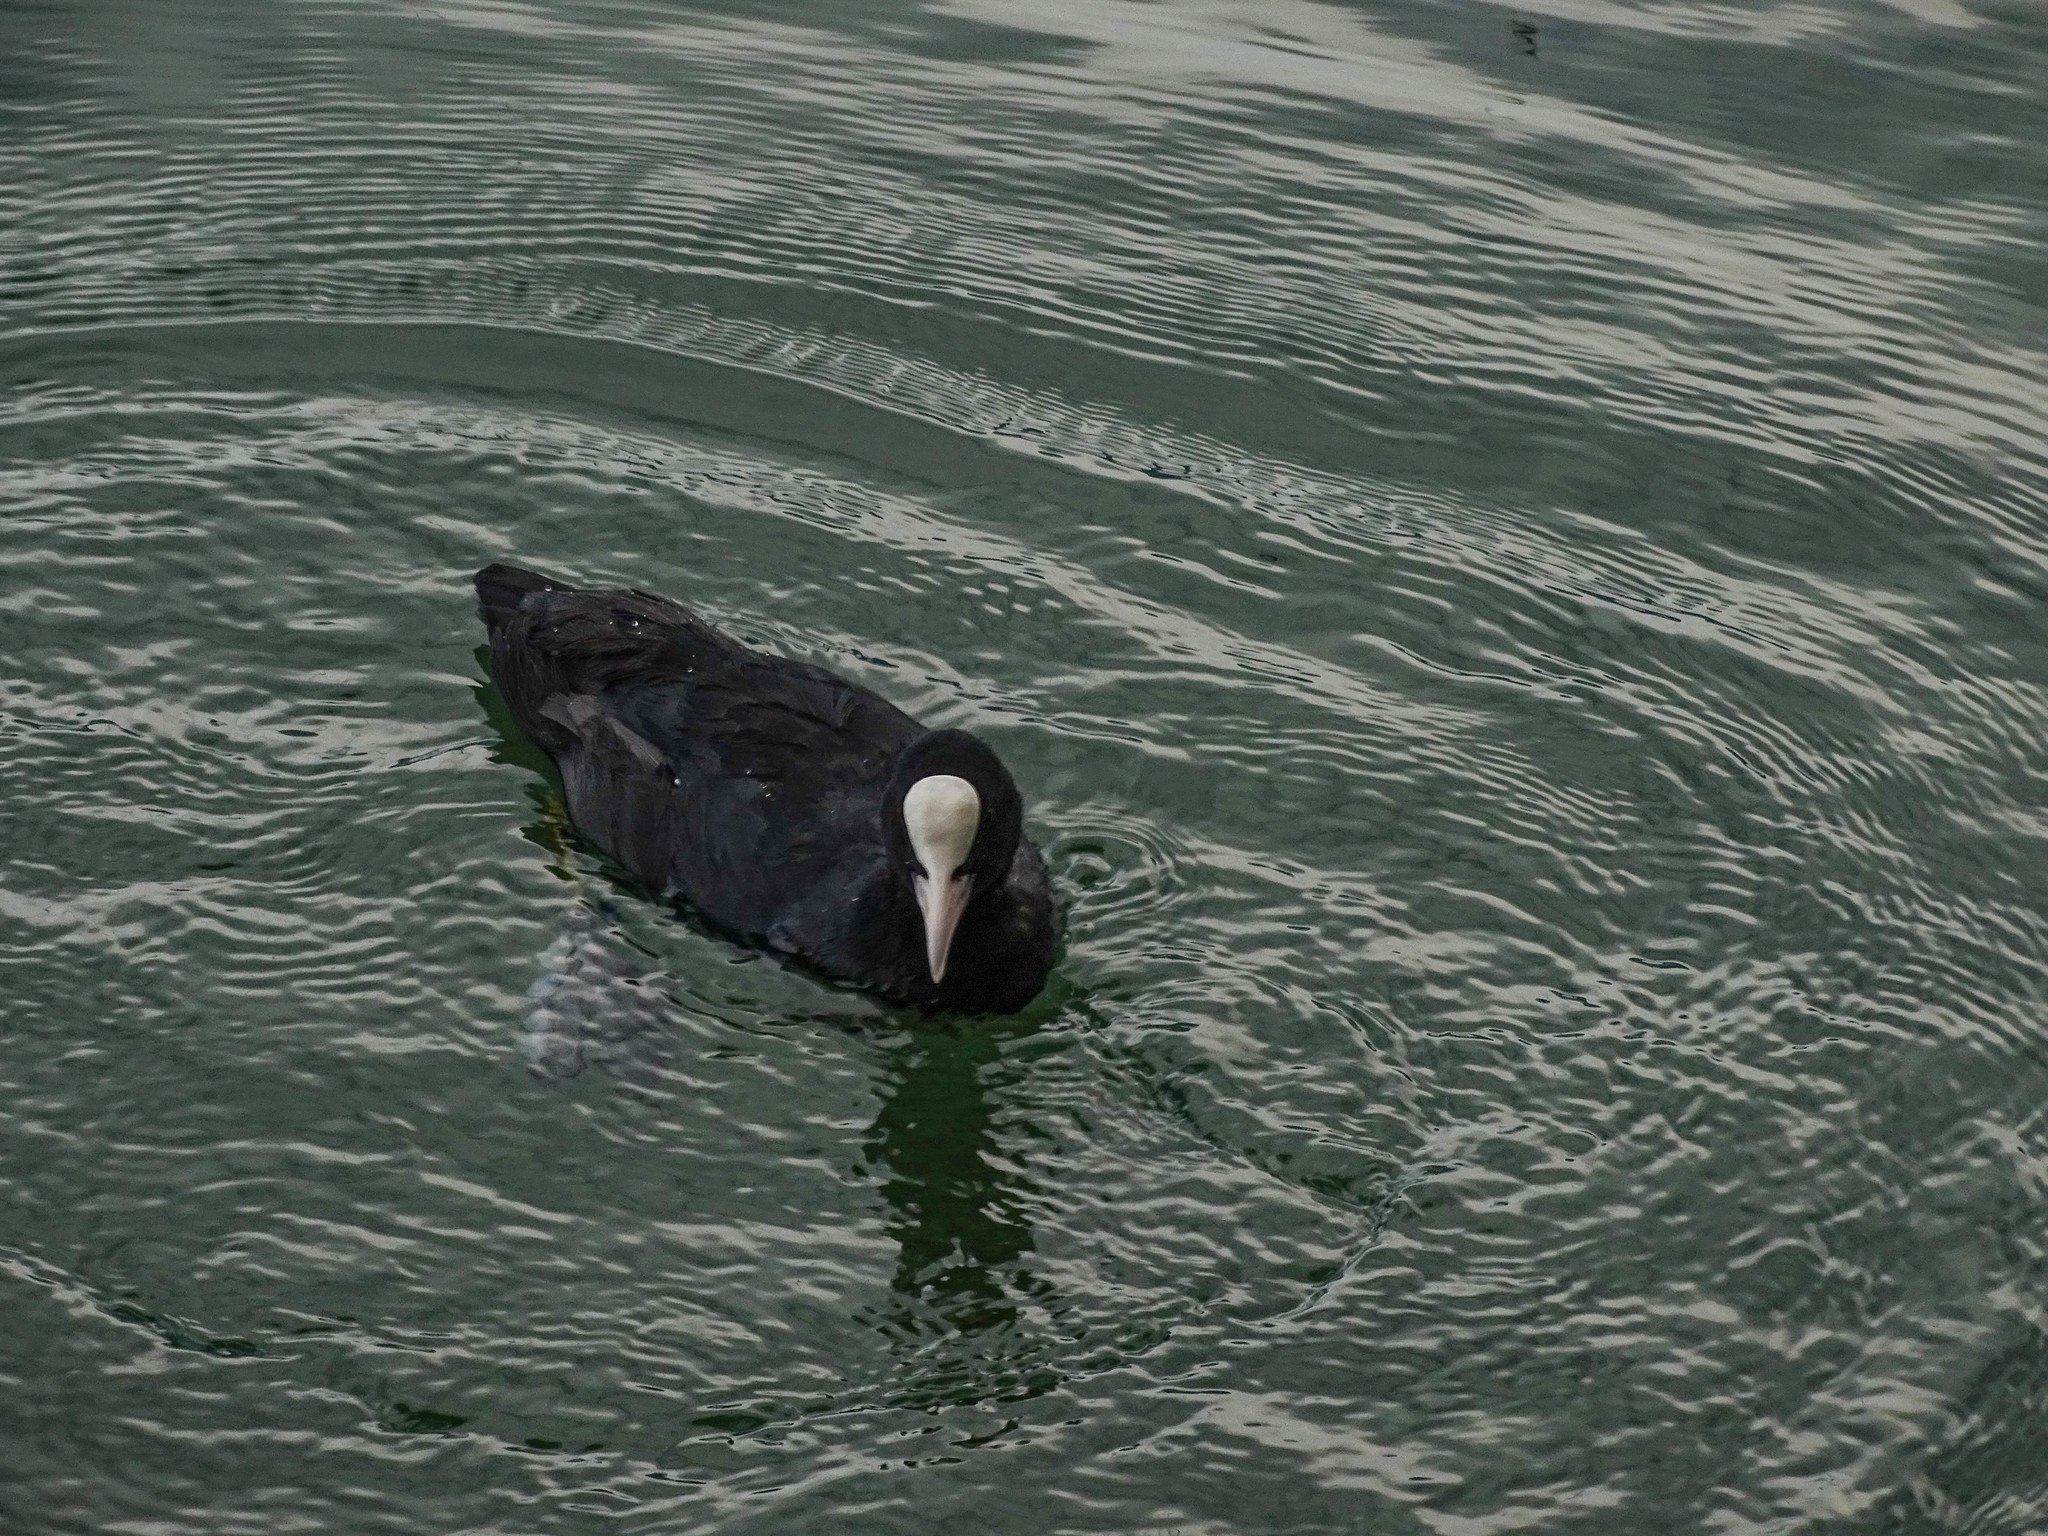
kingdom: Animalia
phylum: Chordata
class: Aves
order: Gruiformes
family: Rallidae
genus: Fulica
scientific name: Fulica atra
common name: Eurasian coot
